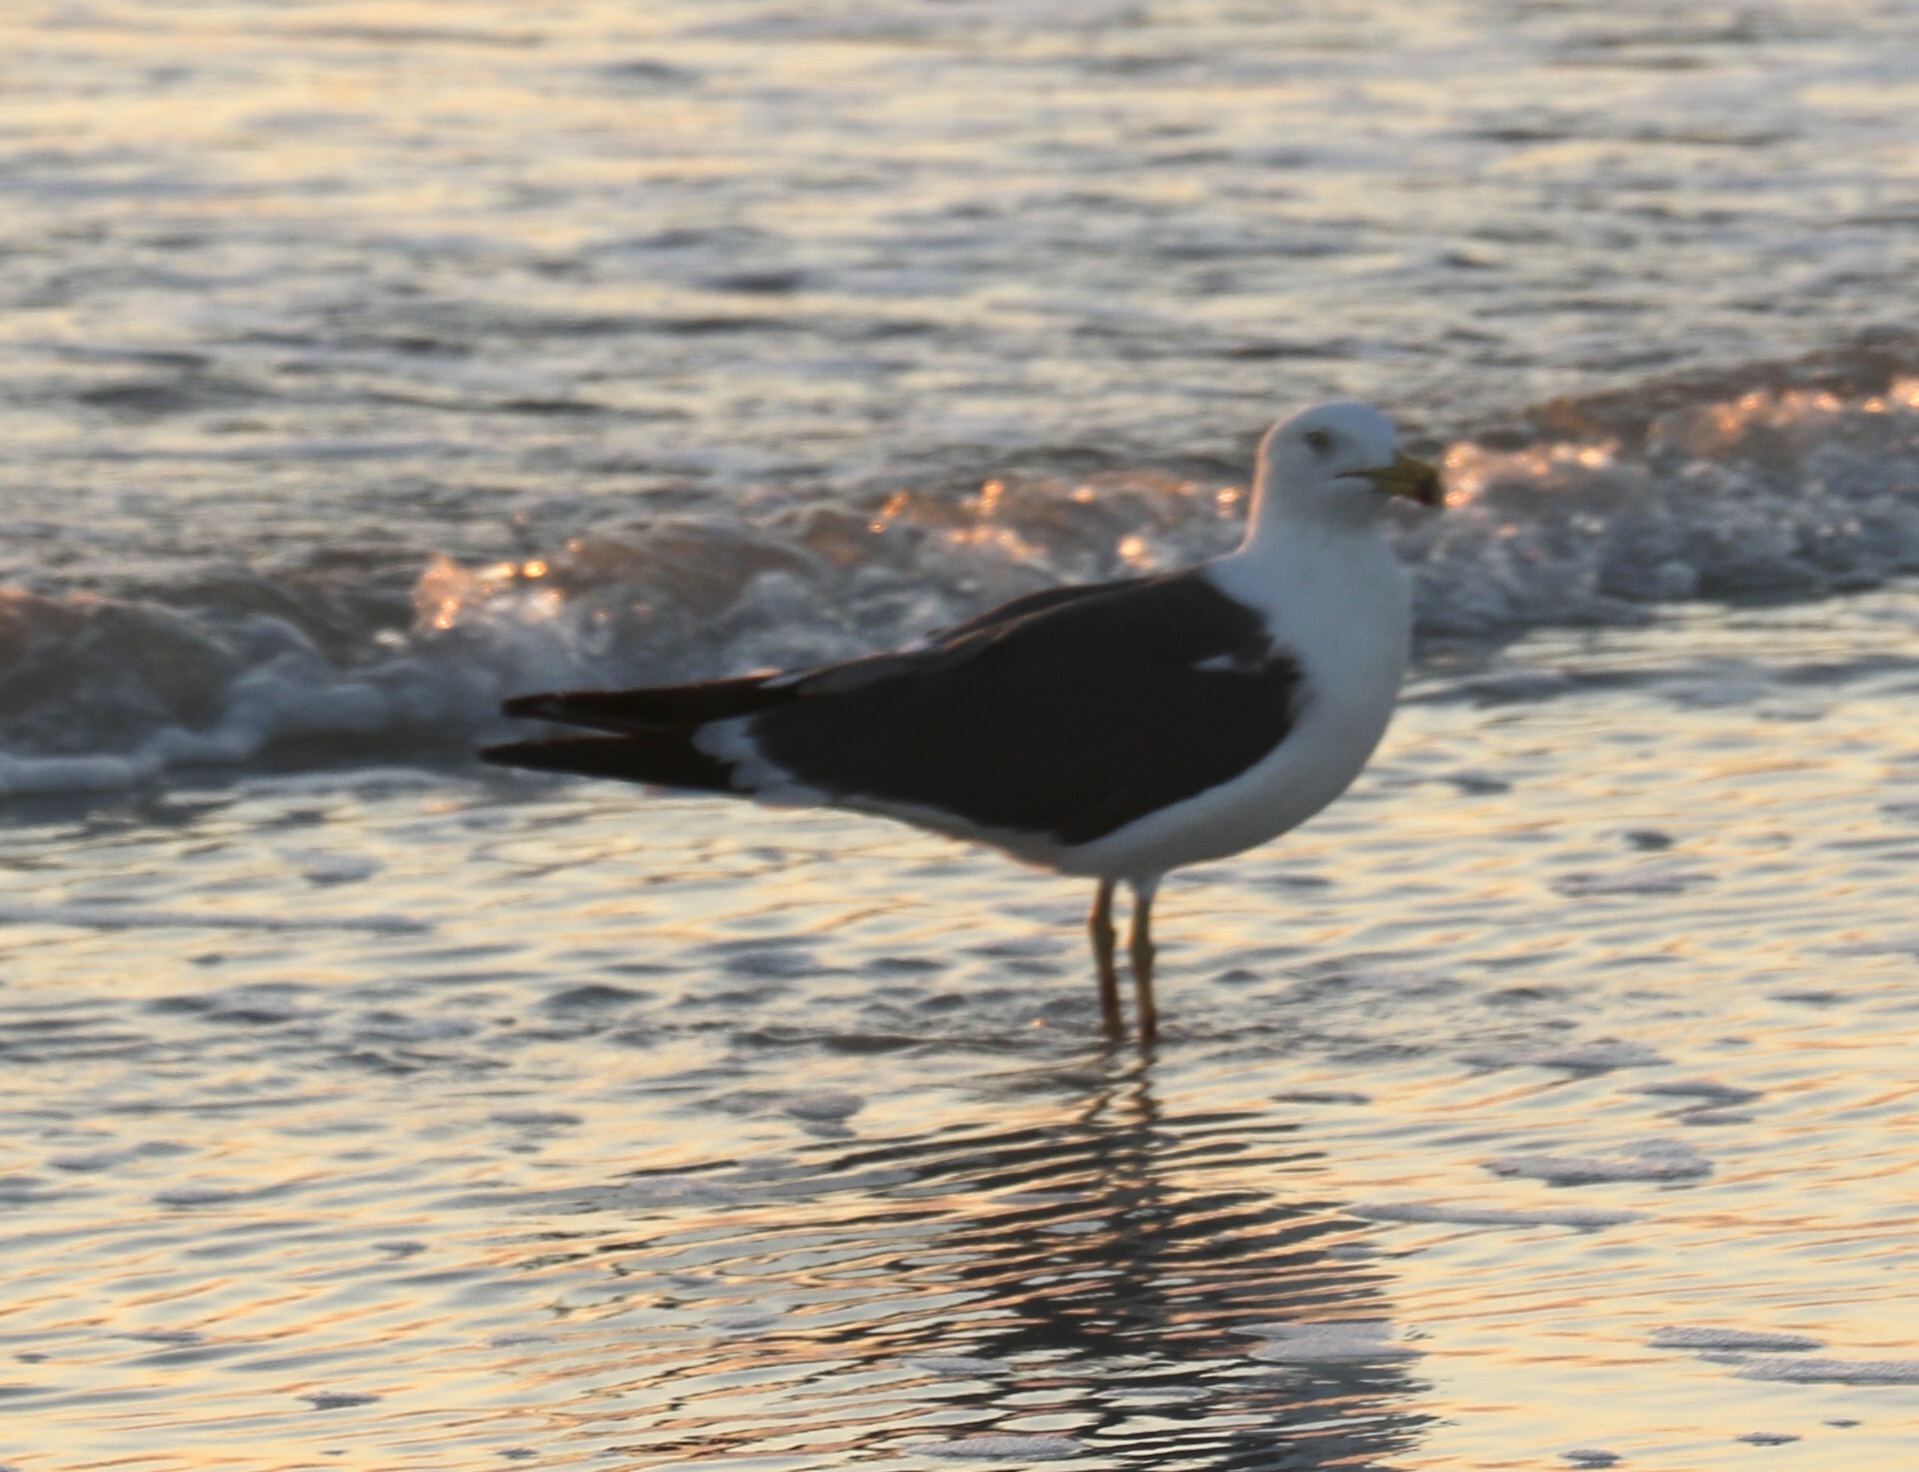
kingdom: Animalia
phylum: Chordata
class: Aves
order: Charadriiformes
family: Laridae
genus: Larus
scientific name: Larus fuscus
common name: Lesser black-backed gull
